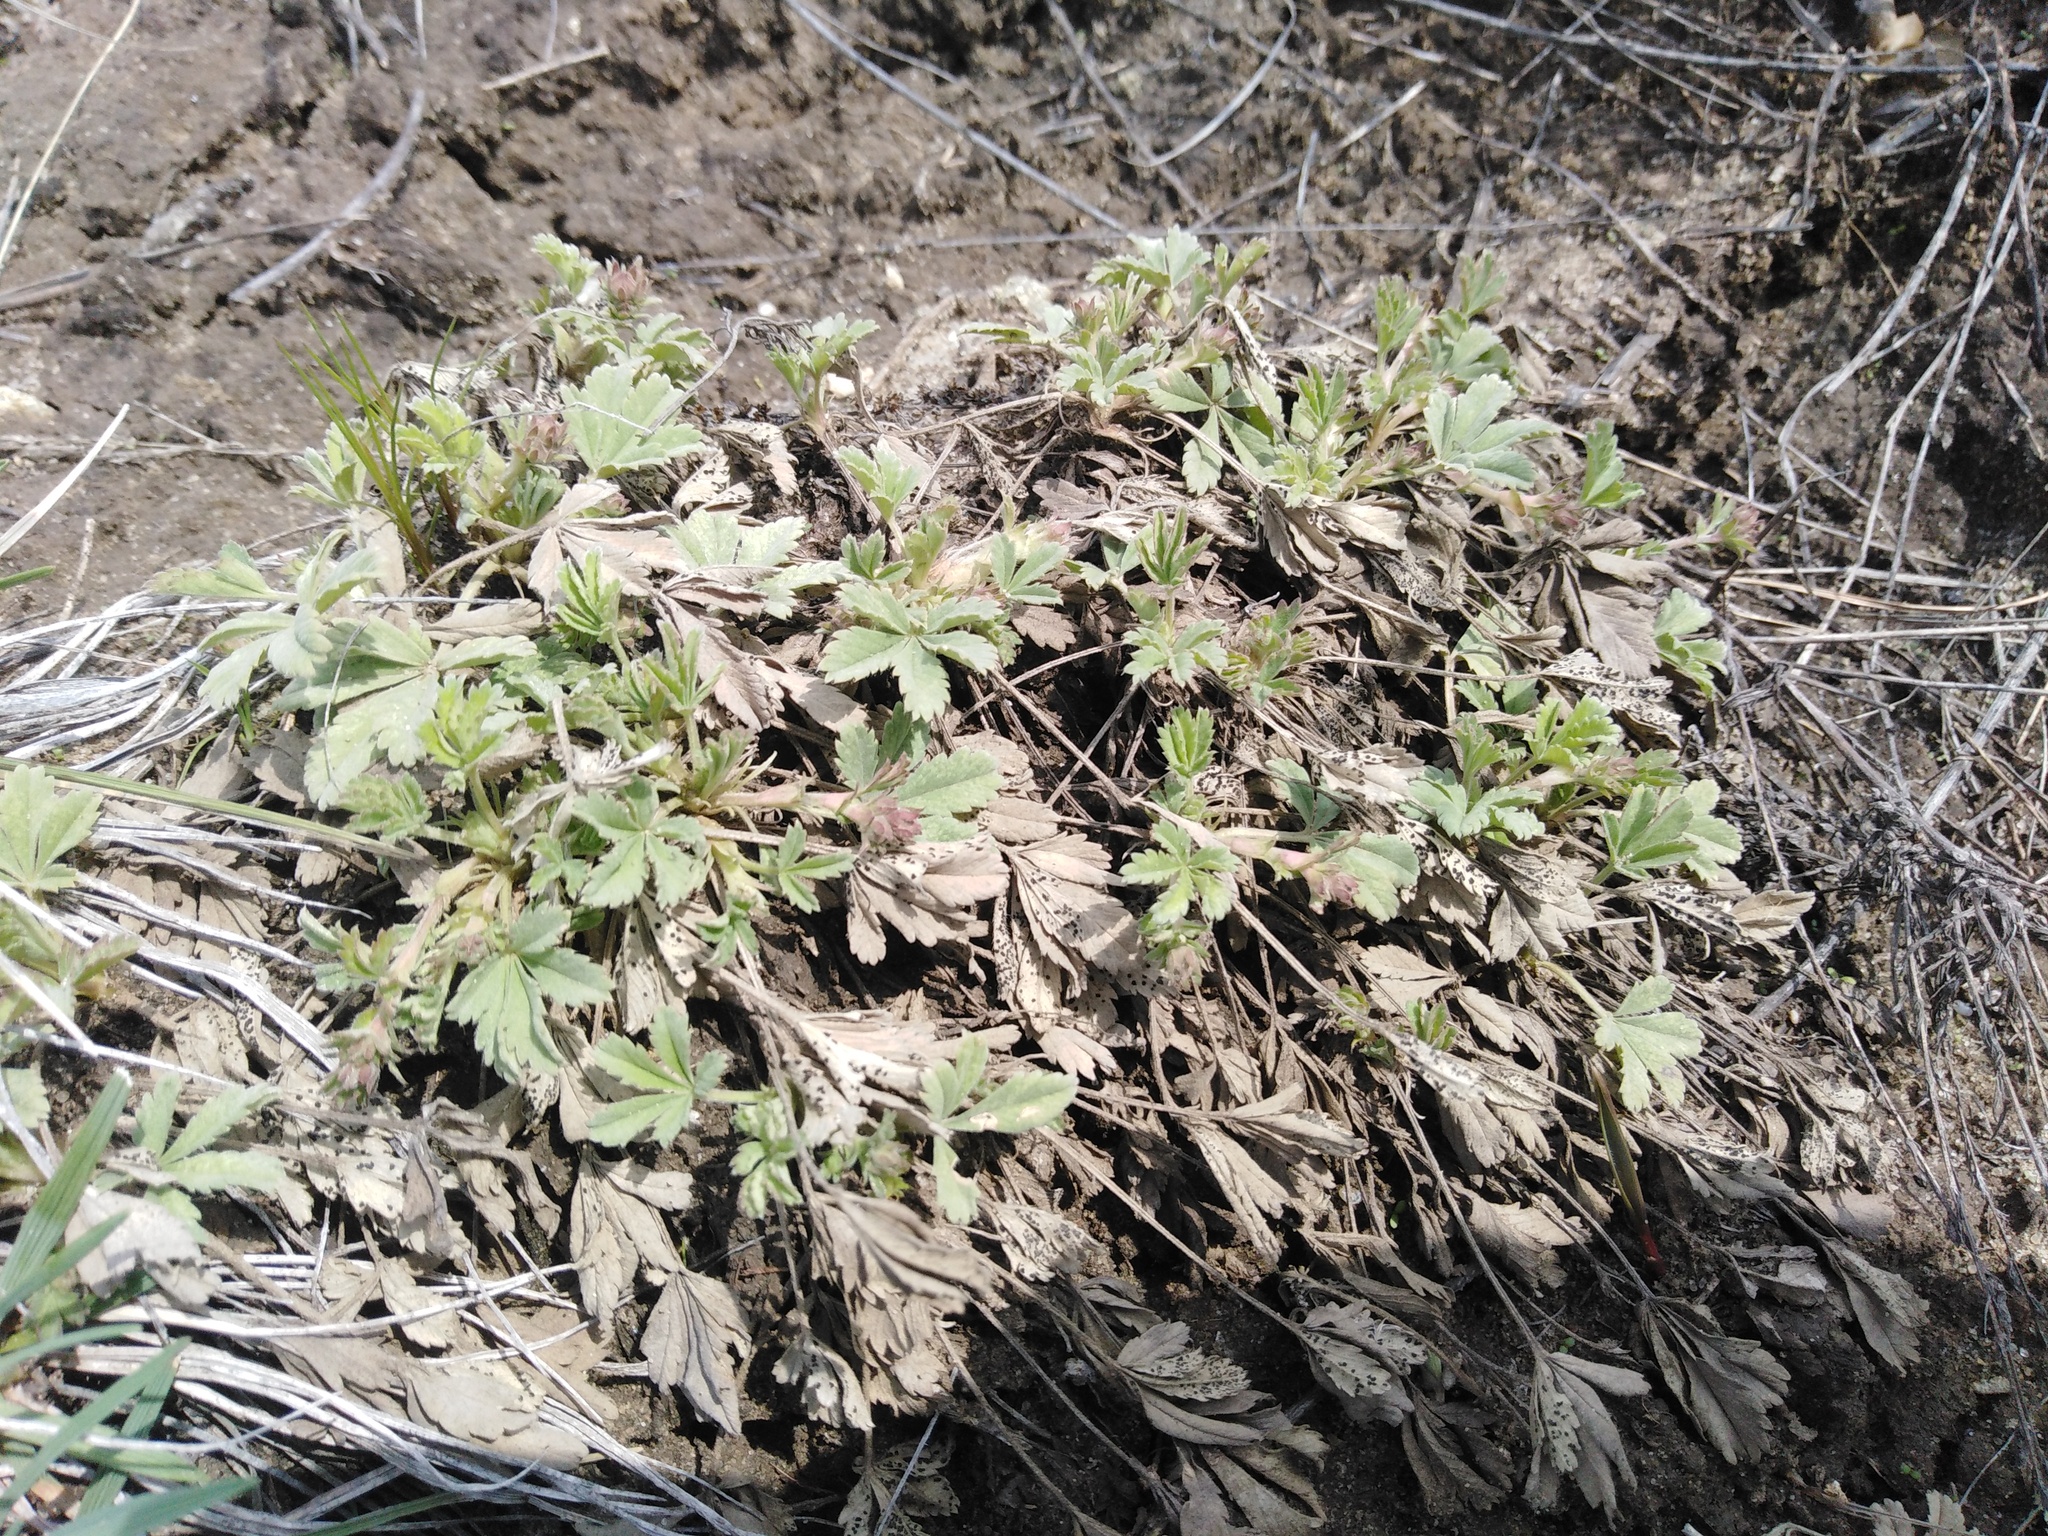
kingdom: Plantae
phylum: Tracheophyta
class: Magnoliopsida
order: Rosales
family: Rosaceae
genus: Potentilla
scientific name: Potentilla incana
